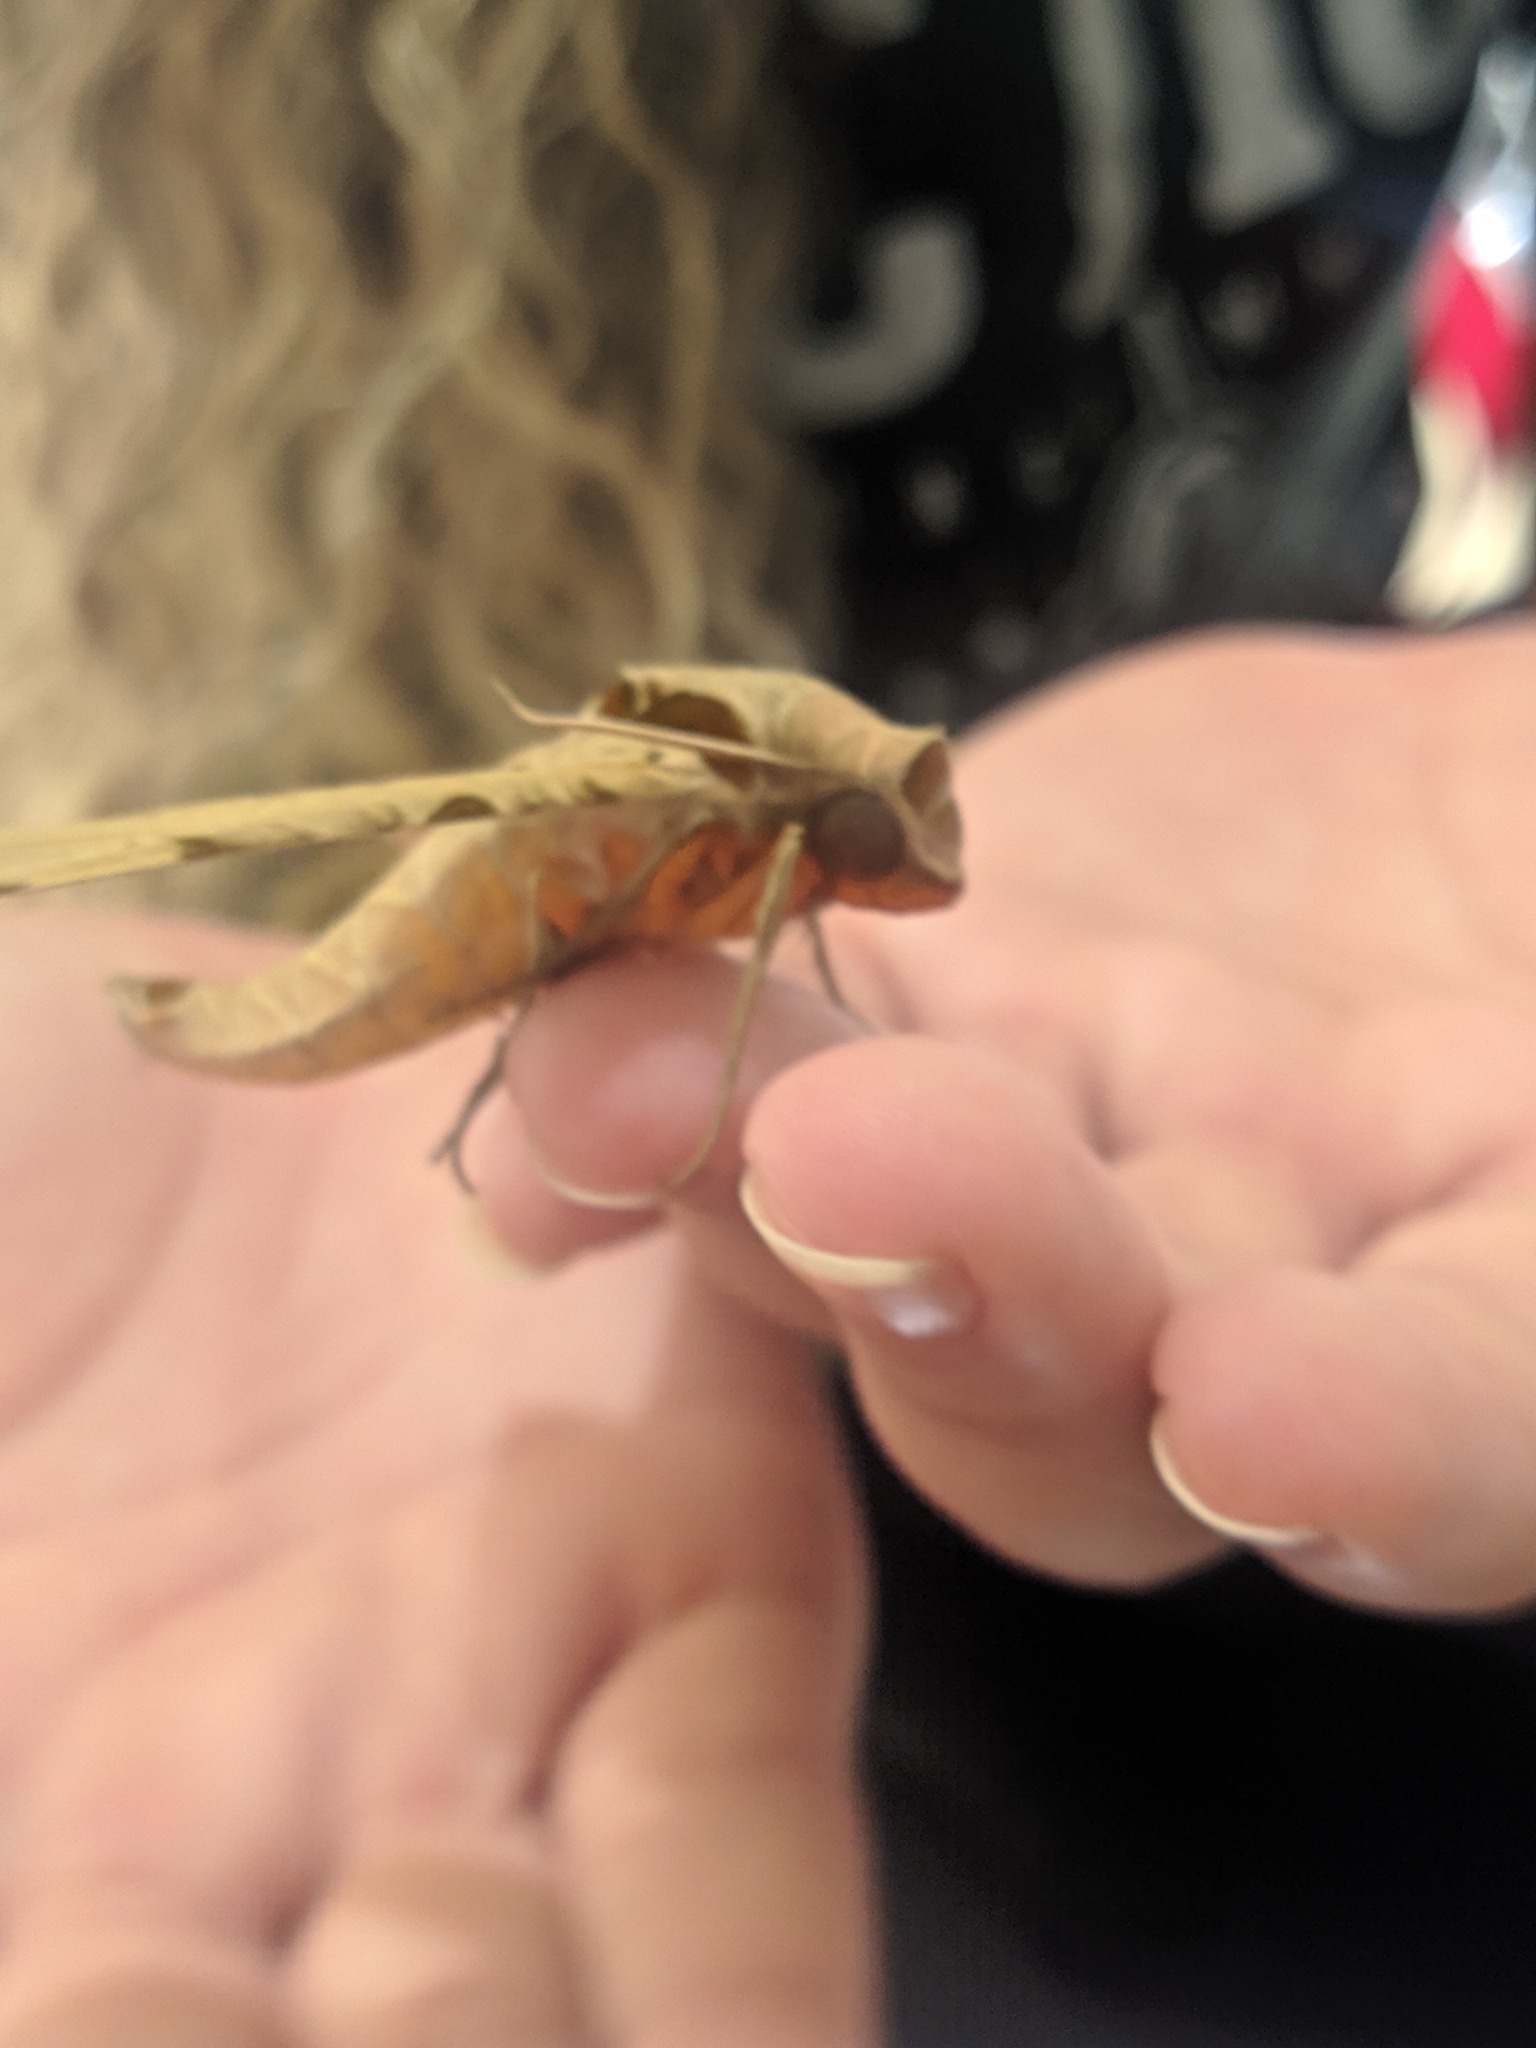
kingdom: Animalia
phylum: Arthropoda
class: Insecta
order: Lepidoptera
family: Sphingidae
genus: Protambulyx
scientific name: Protambulyx strigilis
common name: Streaked sphinx
